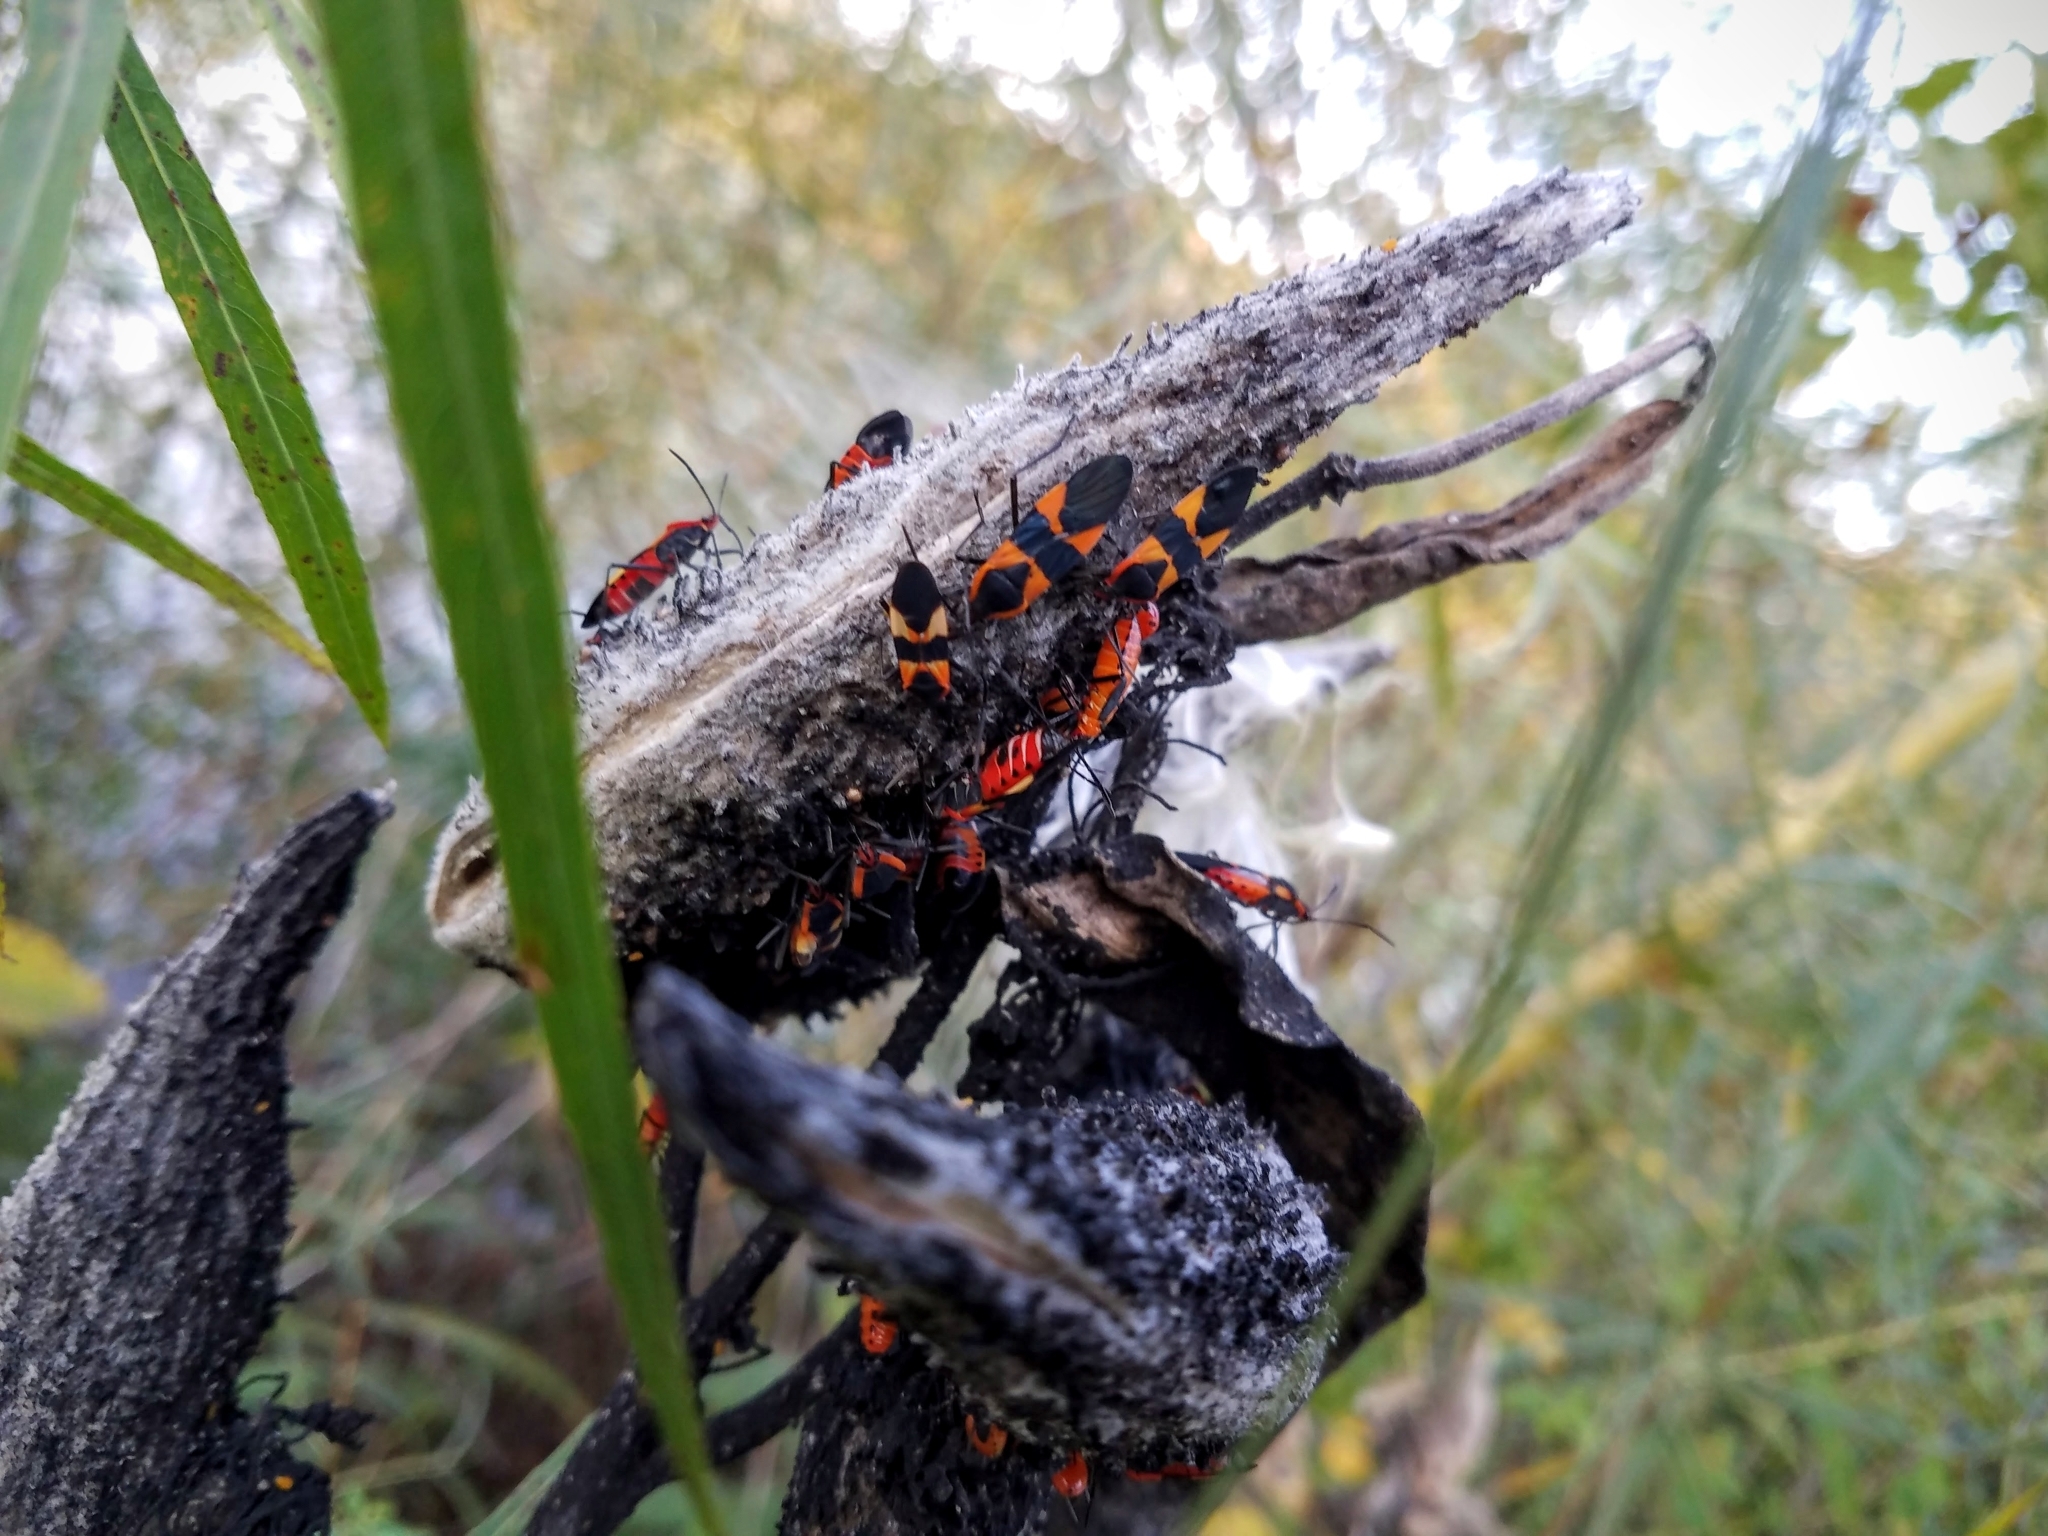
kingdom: Animalia
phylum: Arthropoda
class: Insecta
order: Hemiptera
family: Lygaeidae
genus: Oncopeltus
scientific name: Oncopeltus fasciatus
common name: Large milkweed bug
